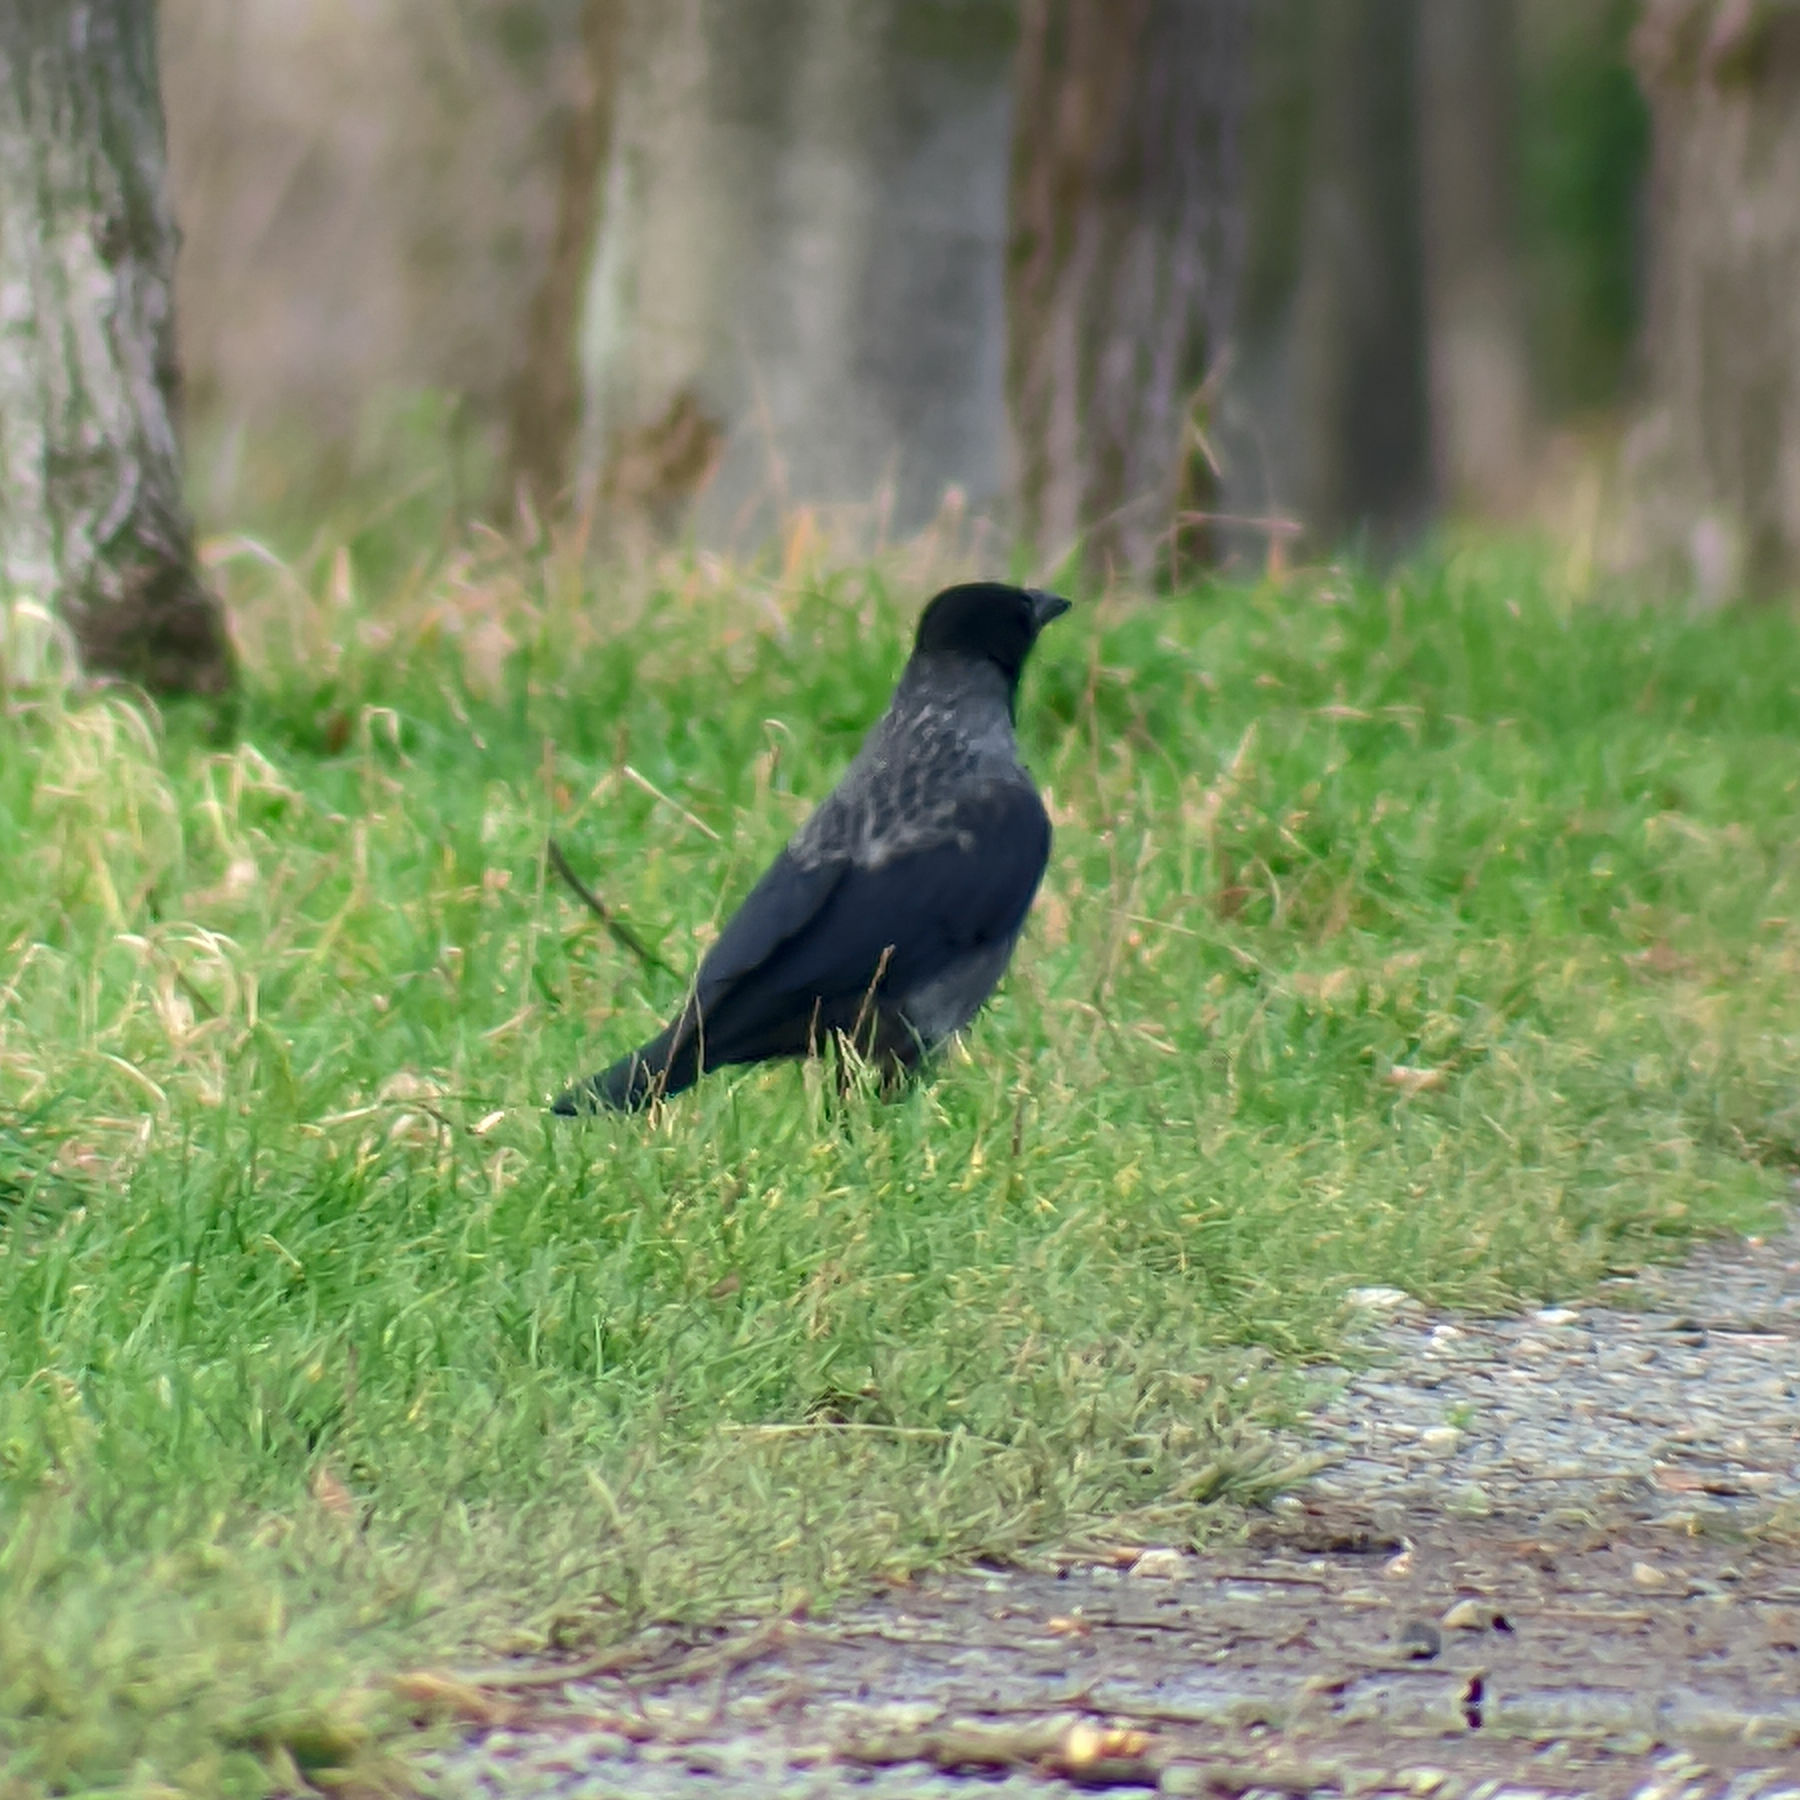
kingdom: Animalia
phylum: Chordata
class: Aves
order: Passeriformes
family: Corvidae
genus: Corvus
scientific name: Corvus
